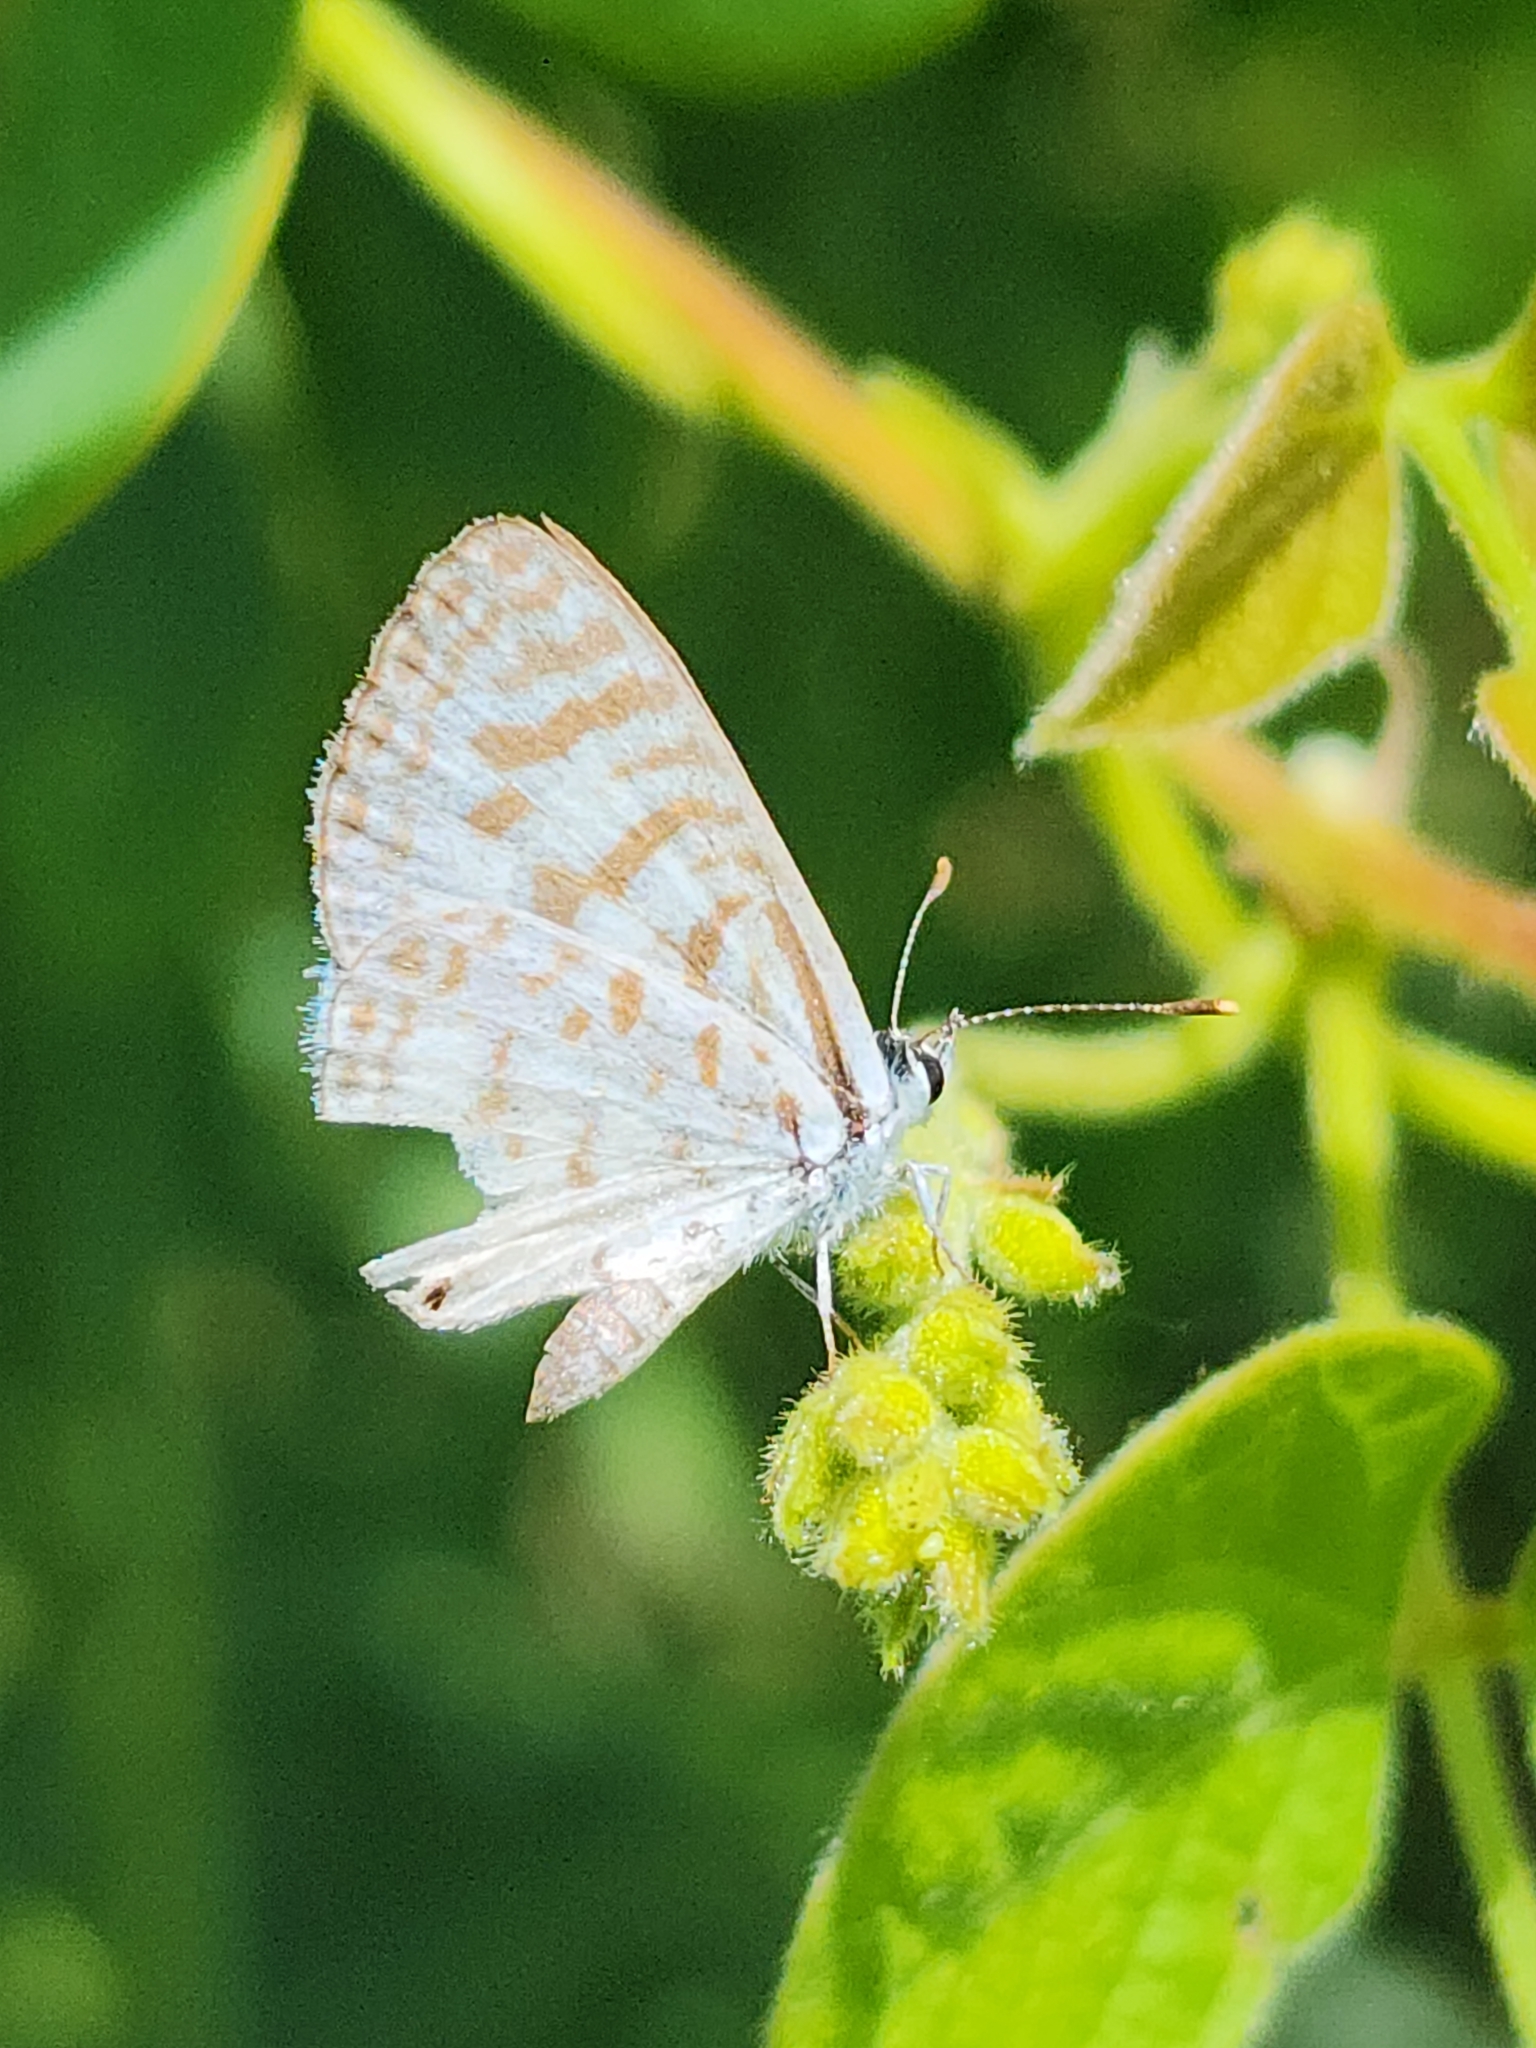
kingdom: Animalia
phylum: Arthropoda
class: Insecta
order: Lepidoptera
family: Lycaenidae
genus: Leptotes
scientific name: Leptotes cassius
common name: Cassius blue
